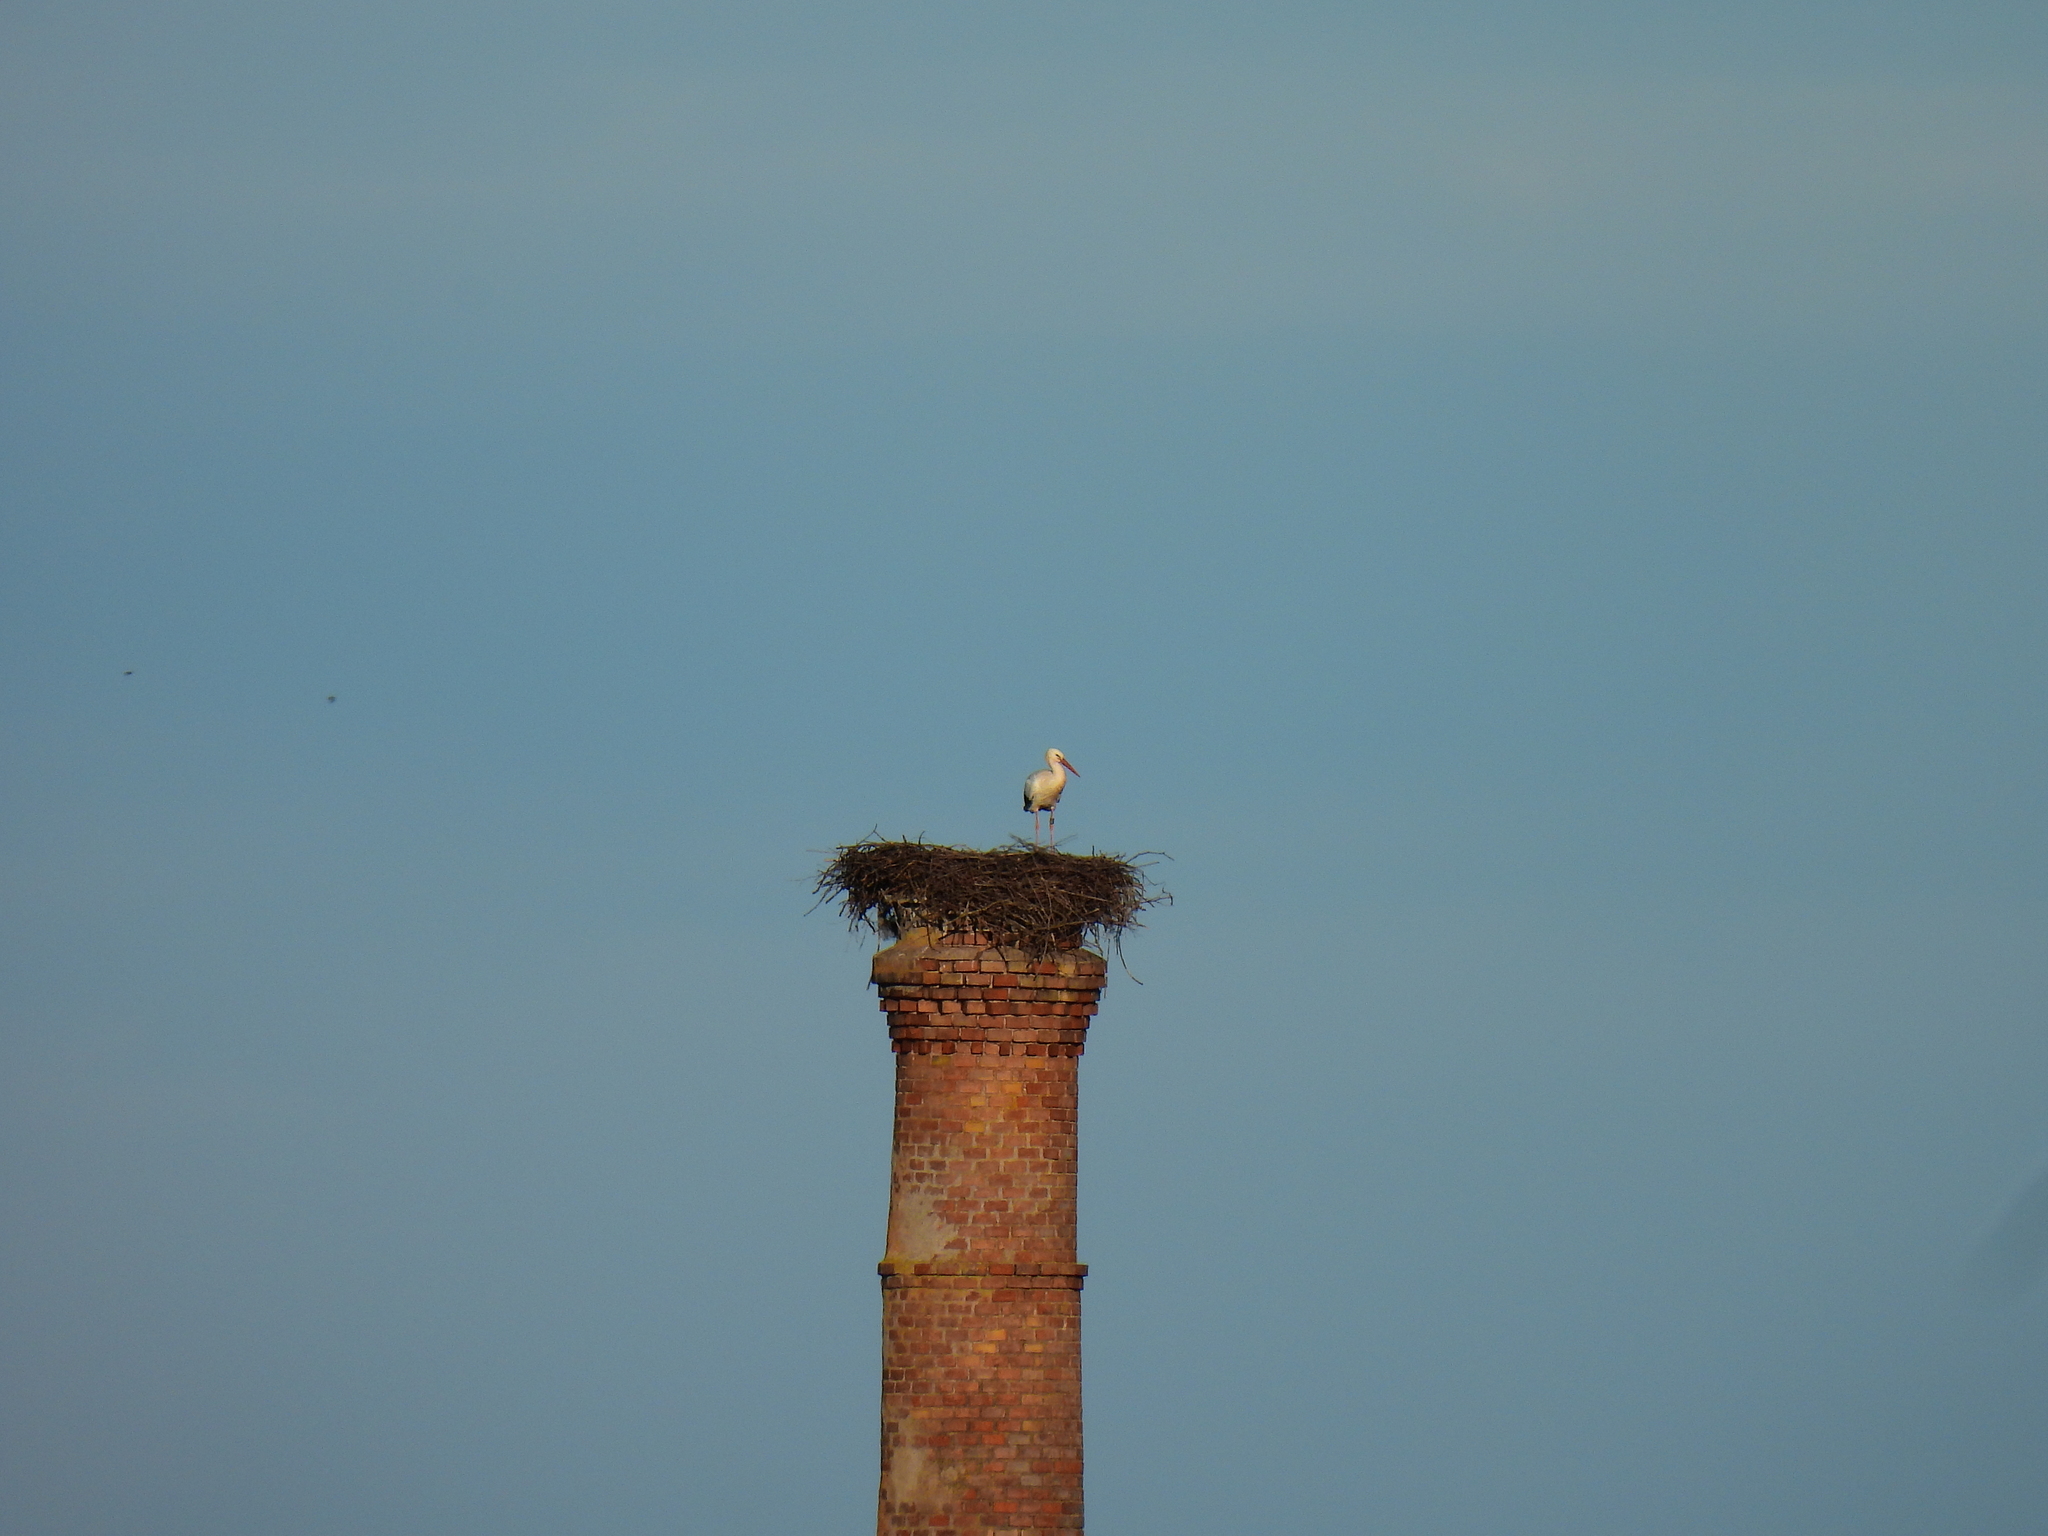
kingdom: Animalia
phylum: Chordata
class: Aves
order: Ciconiiformes
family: Ciconiidae
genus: Ciconia
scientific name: Ciconia ciconia
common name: White stork
